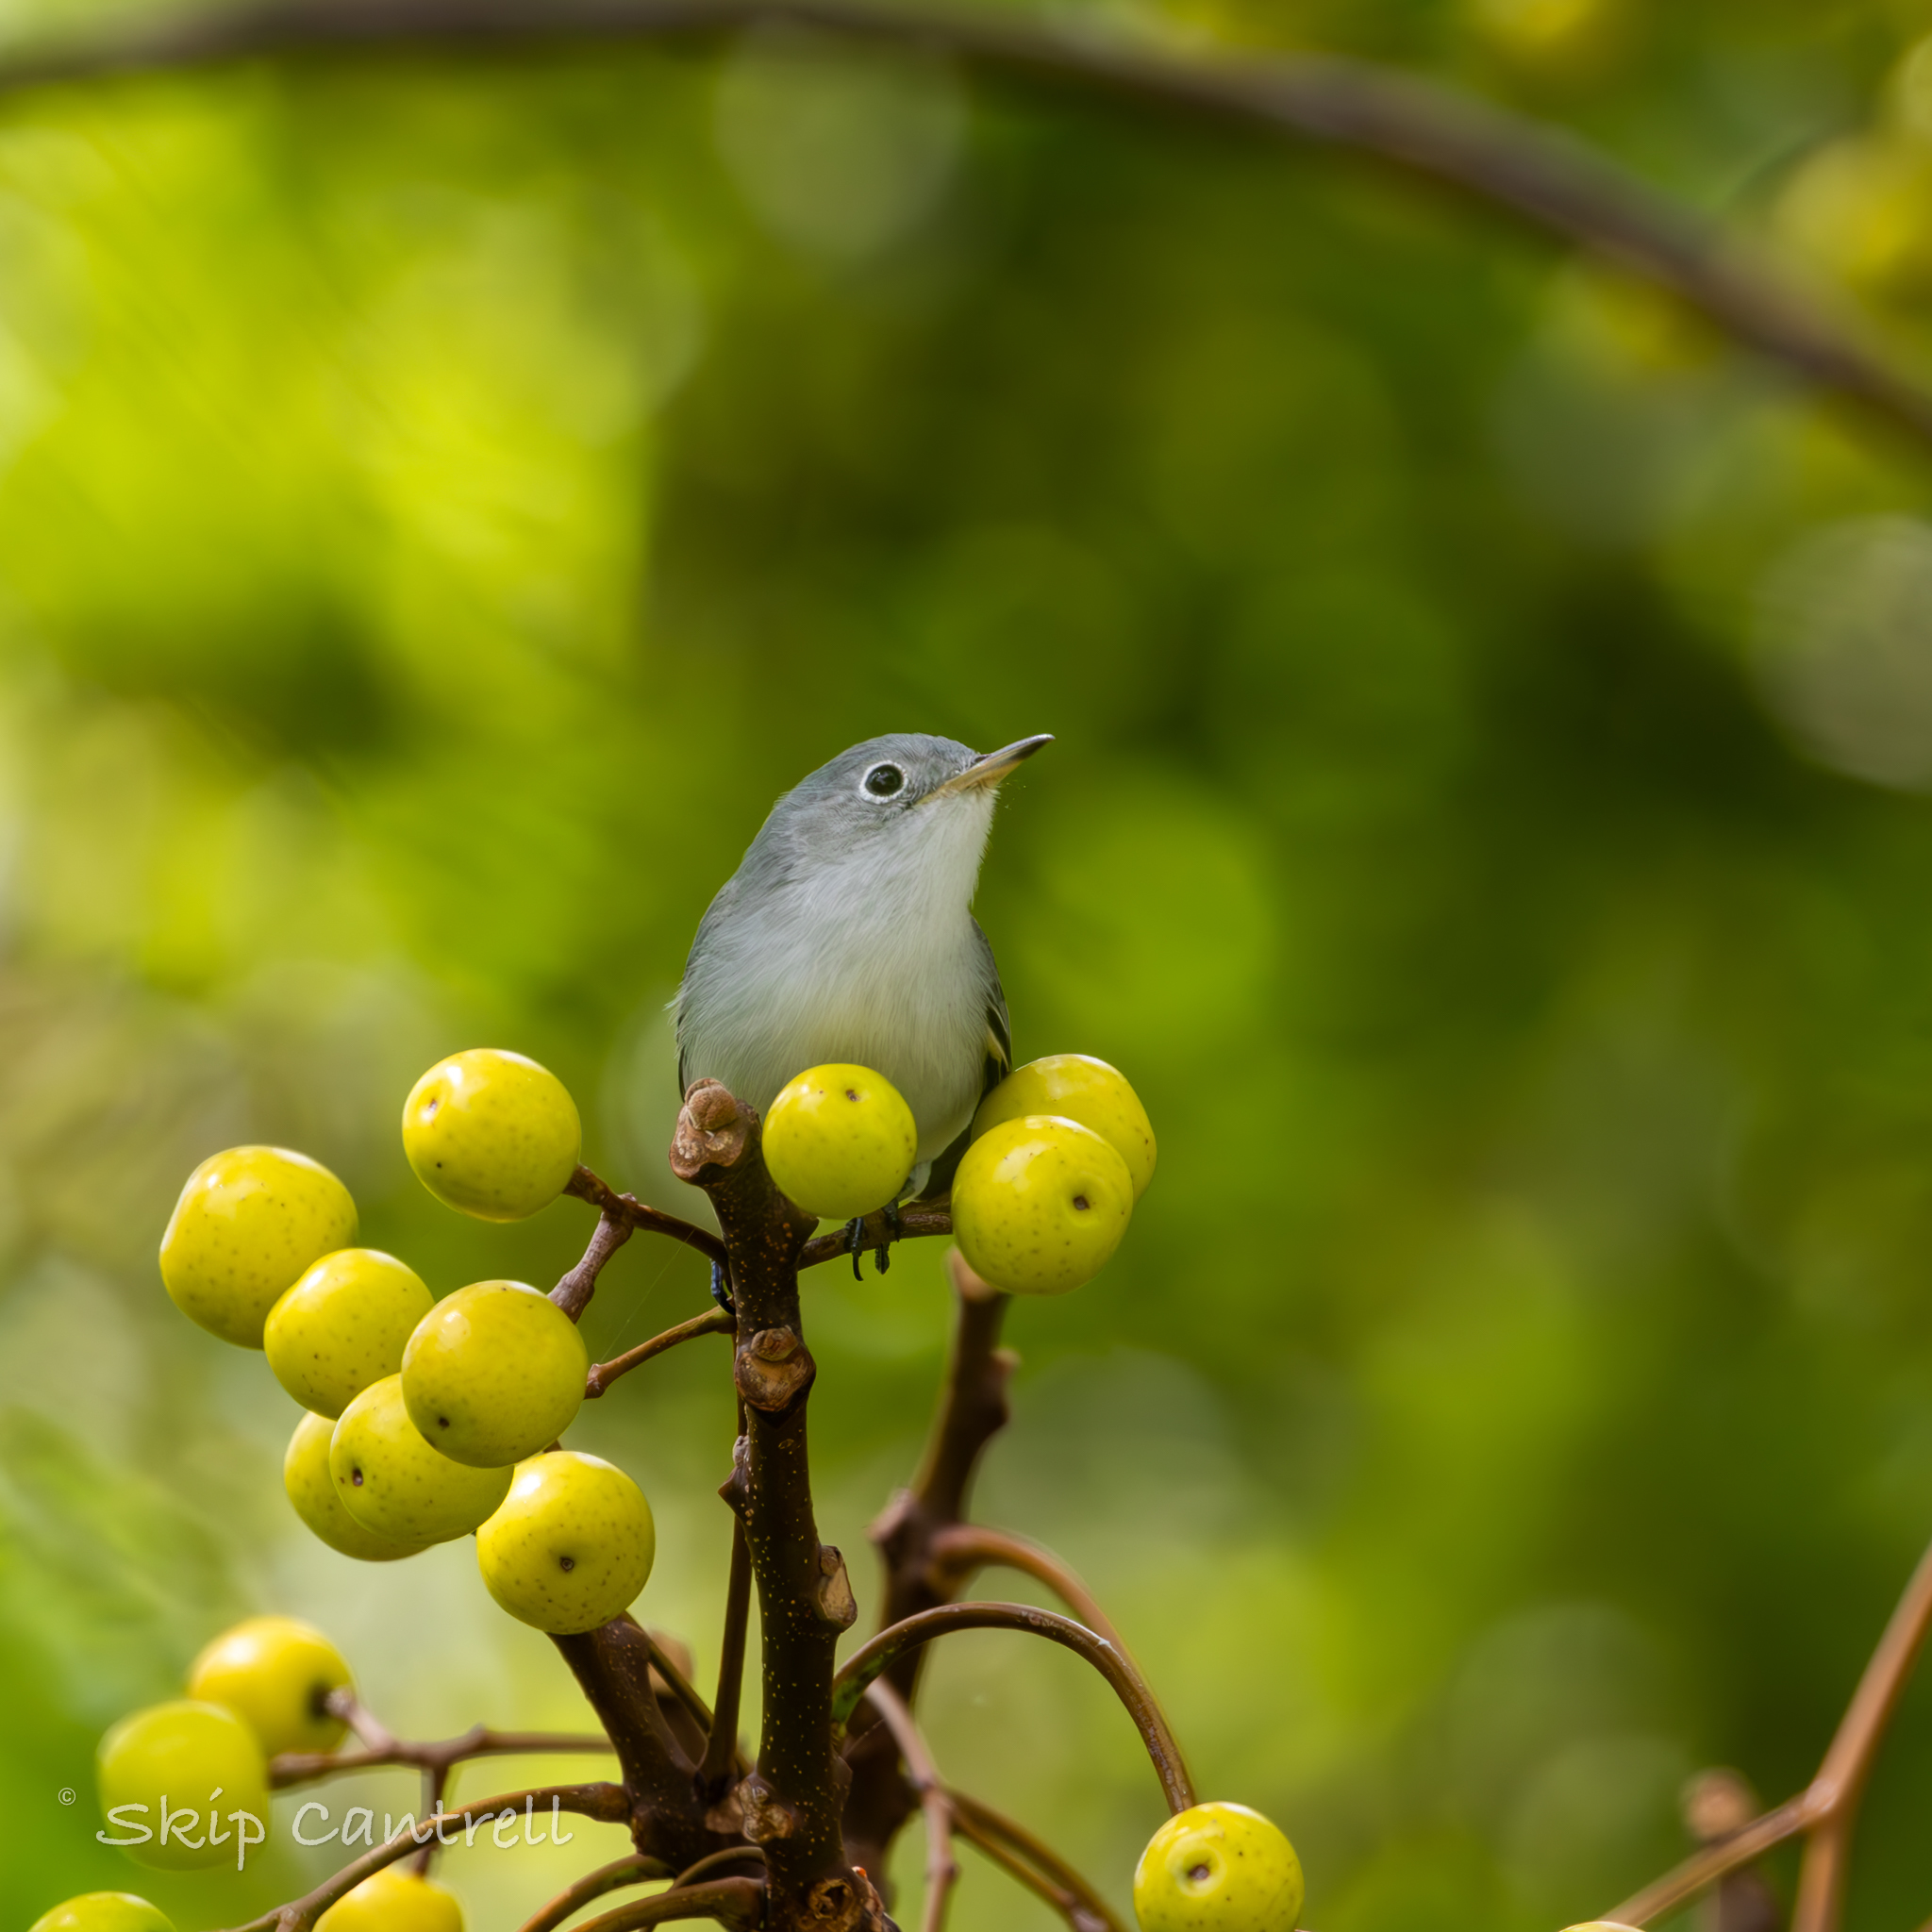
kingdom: Animalia
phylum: Chordata
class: Aves
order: Passeriformes
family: Polioptilidae
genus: Polioptila
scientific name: Polioptila caerulea
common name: Blue-gray gnatcatcher
